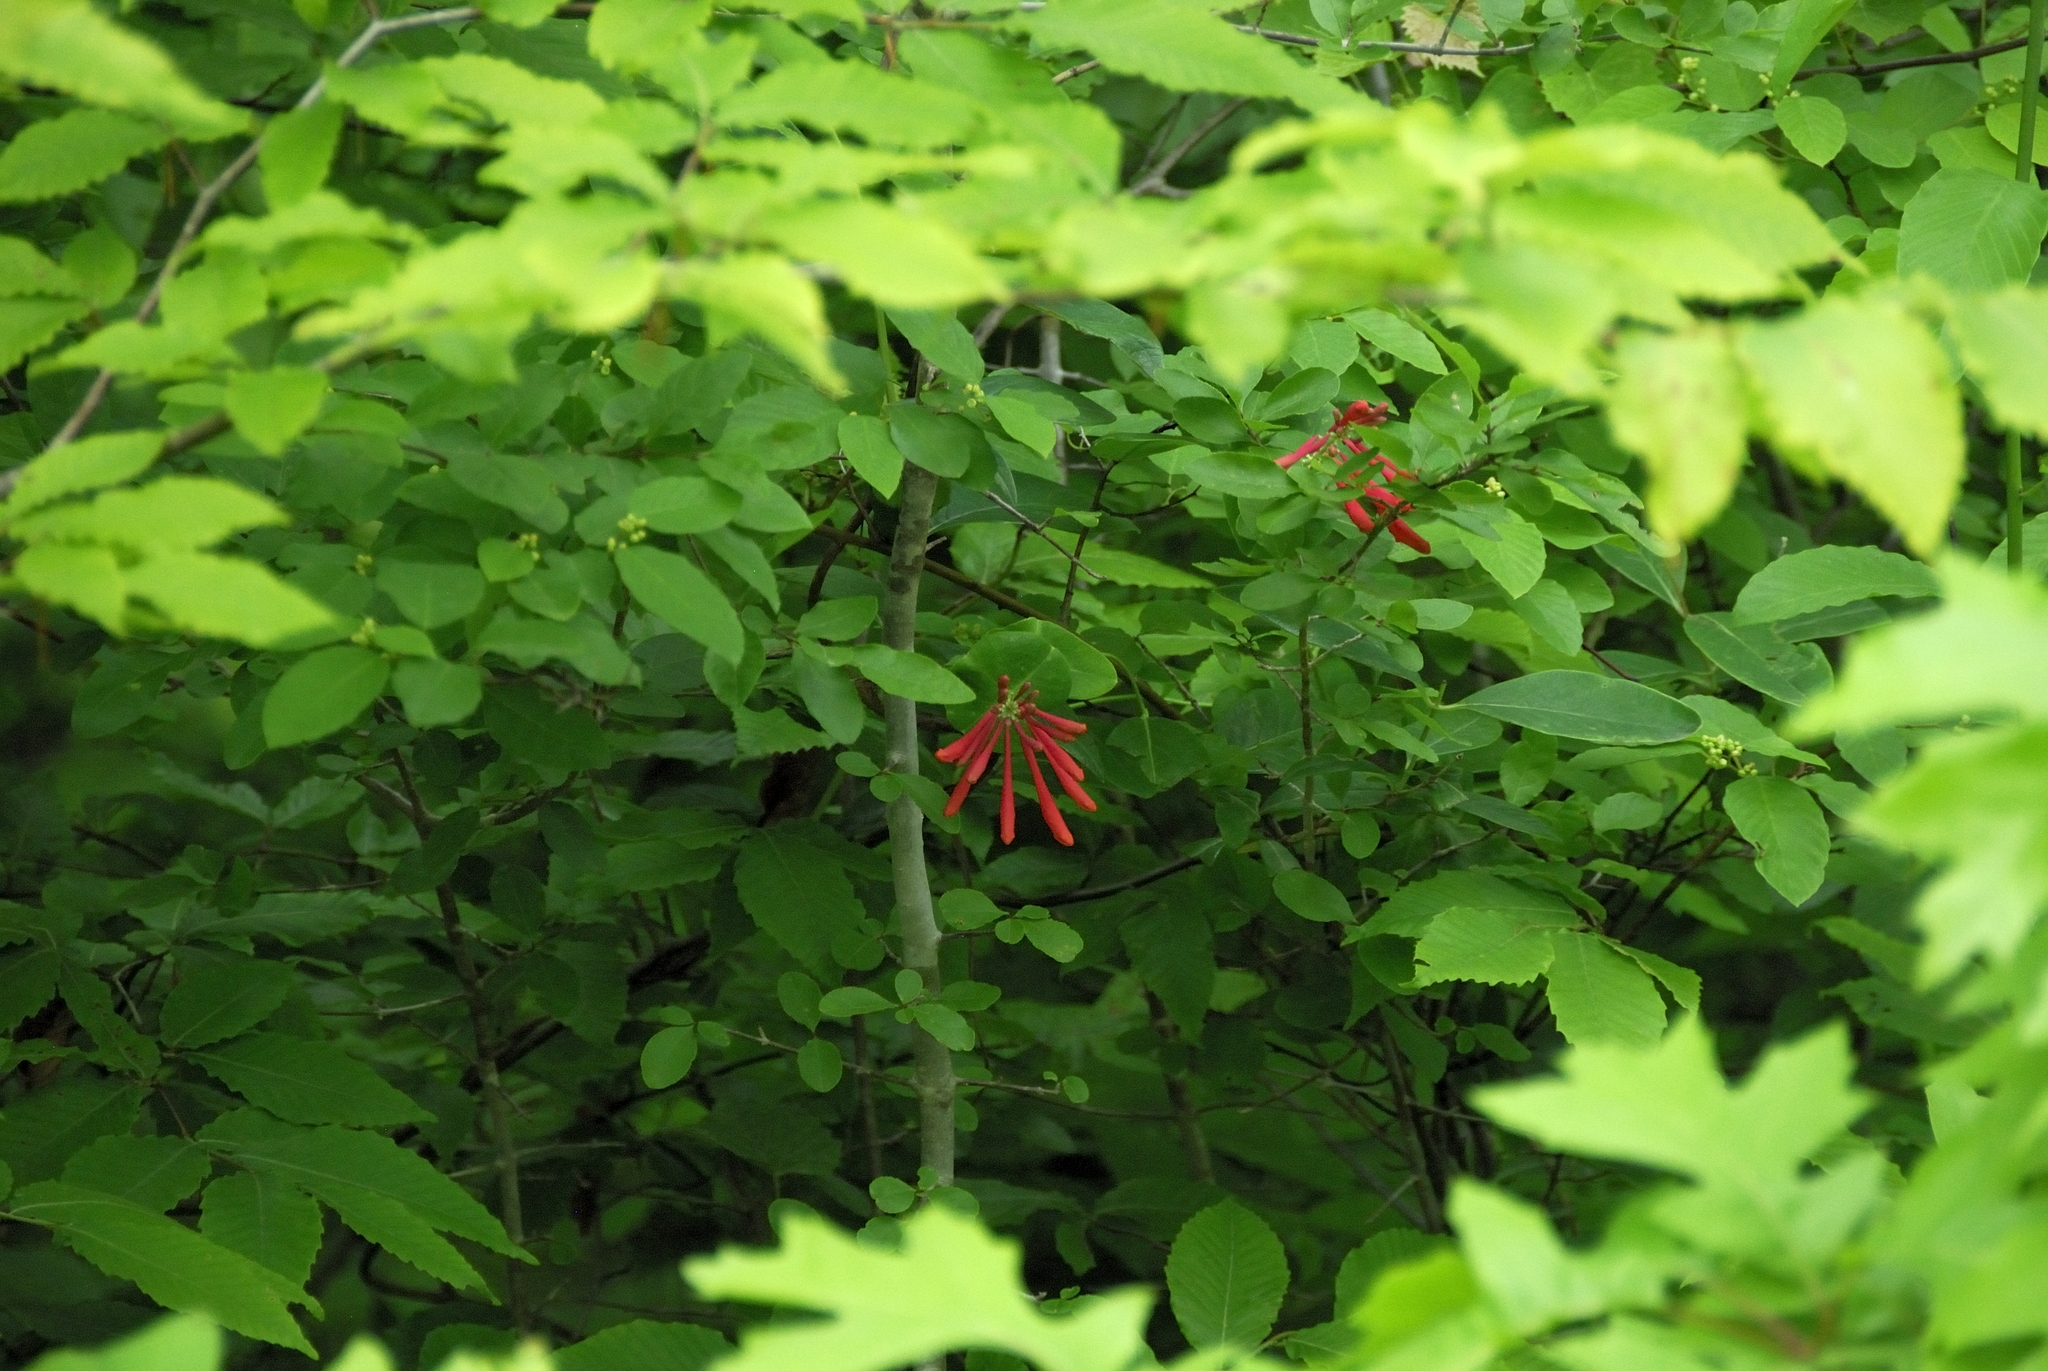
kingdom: Plantae
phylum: Tracheophyta
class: Magnoliopsida
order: Dipsacales
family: Caprifoliaceae
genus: Lonicera
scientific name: Lonicera sempervirens
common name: Coral honeysuckle
